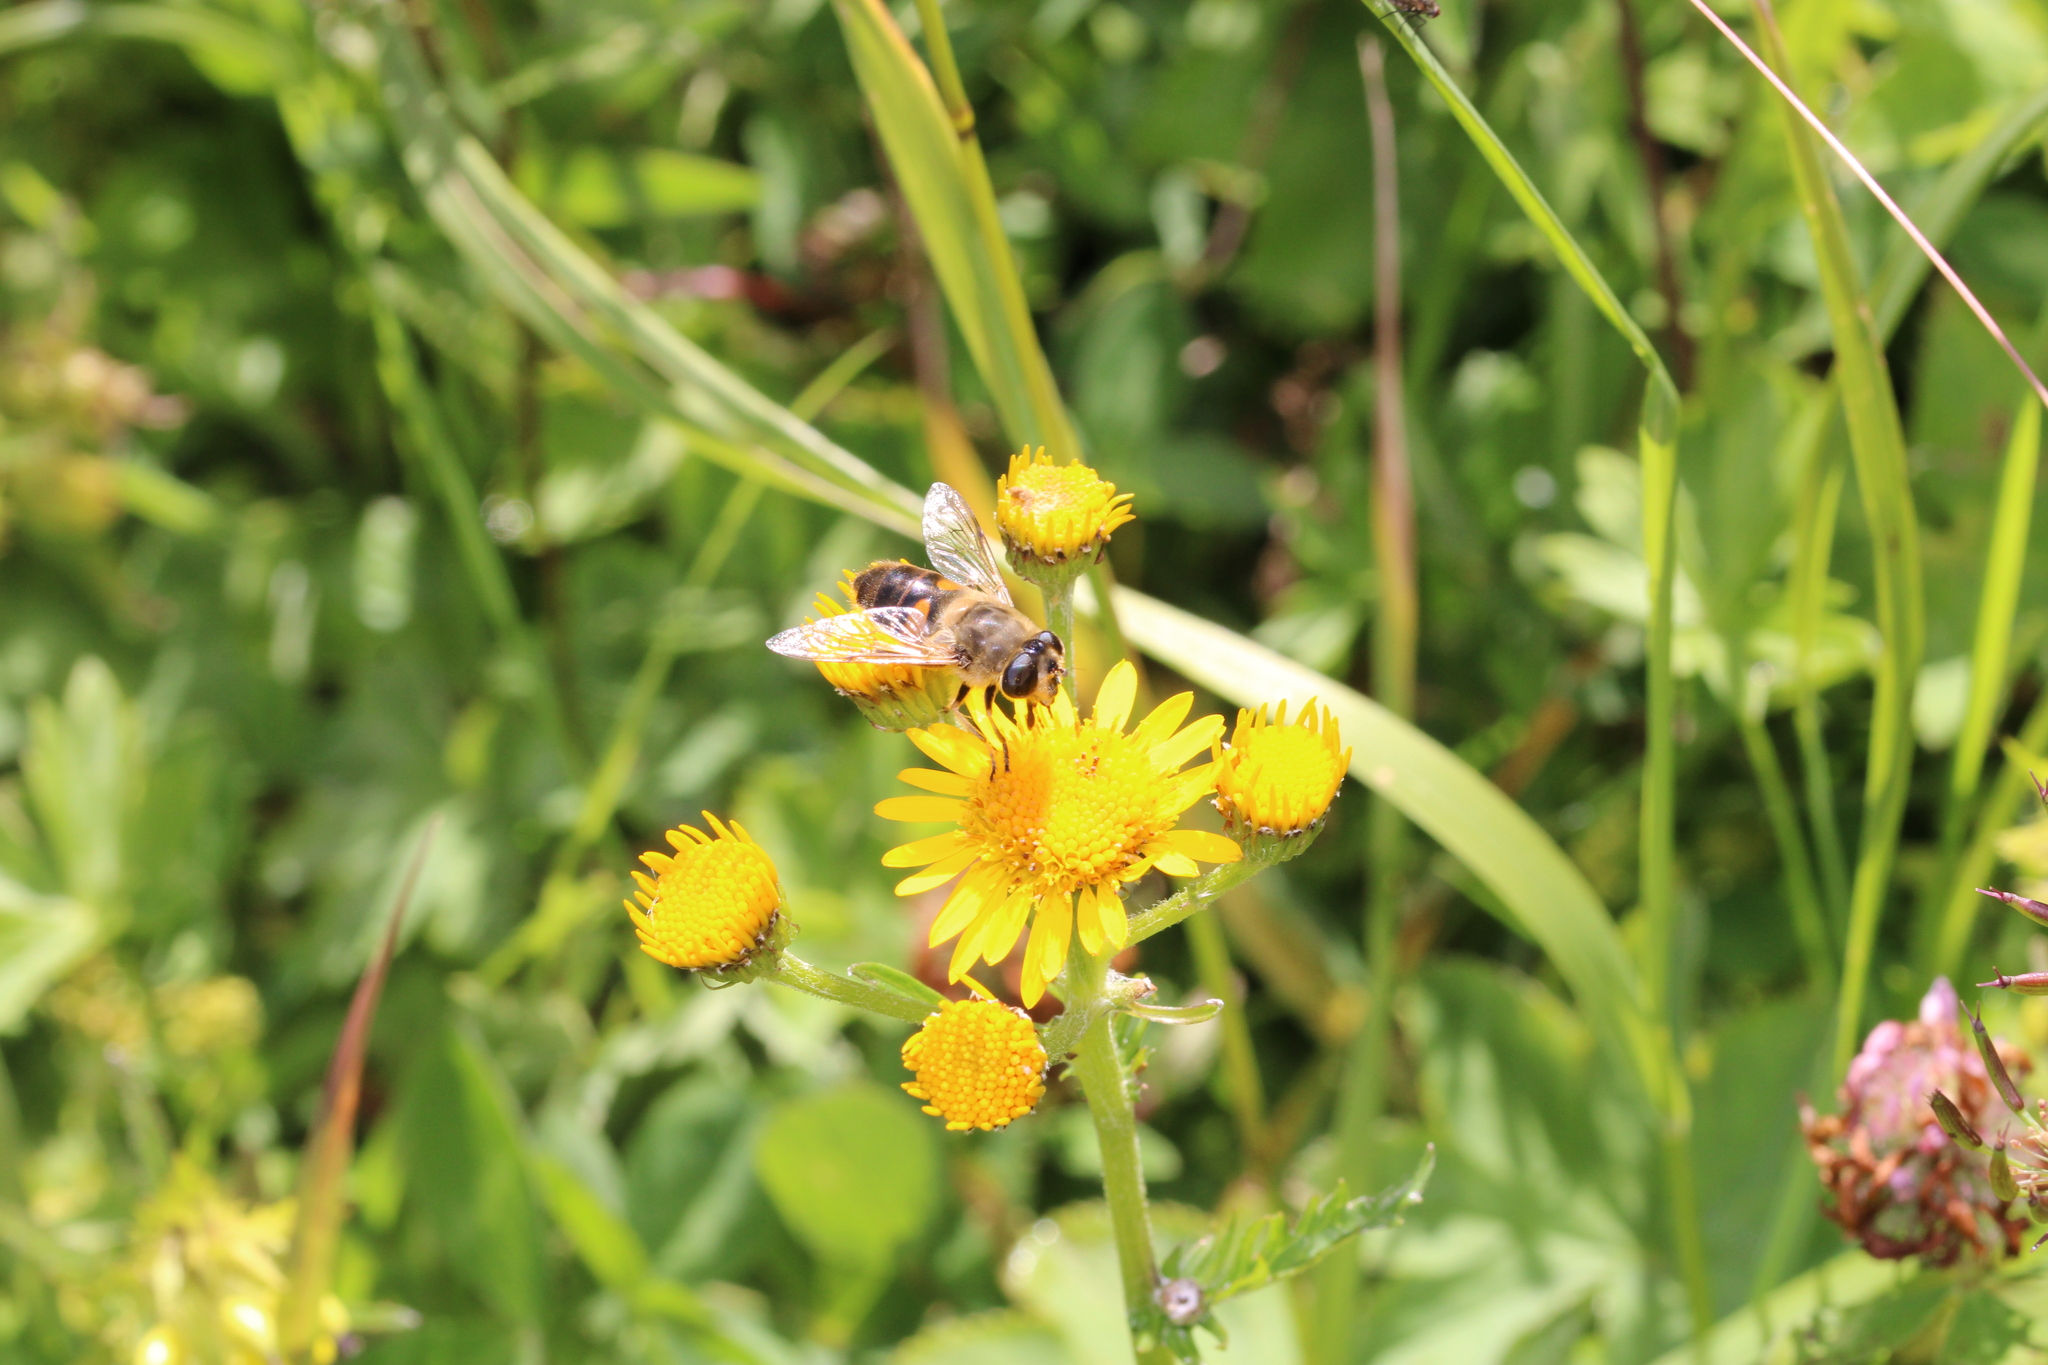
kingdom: Animalia
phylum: Arthropoda
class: Insecta
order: Diptera
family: Syrphidae
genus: Eristalis
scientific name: Eristalis tenax
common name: Drone fly
